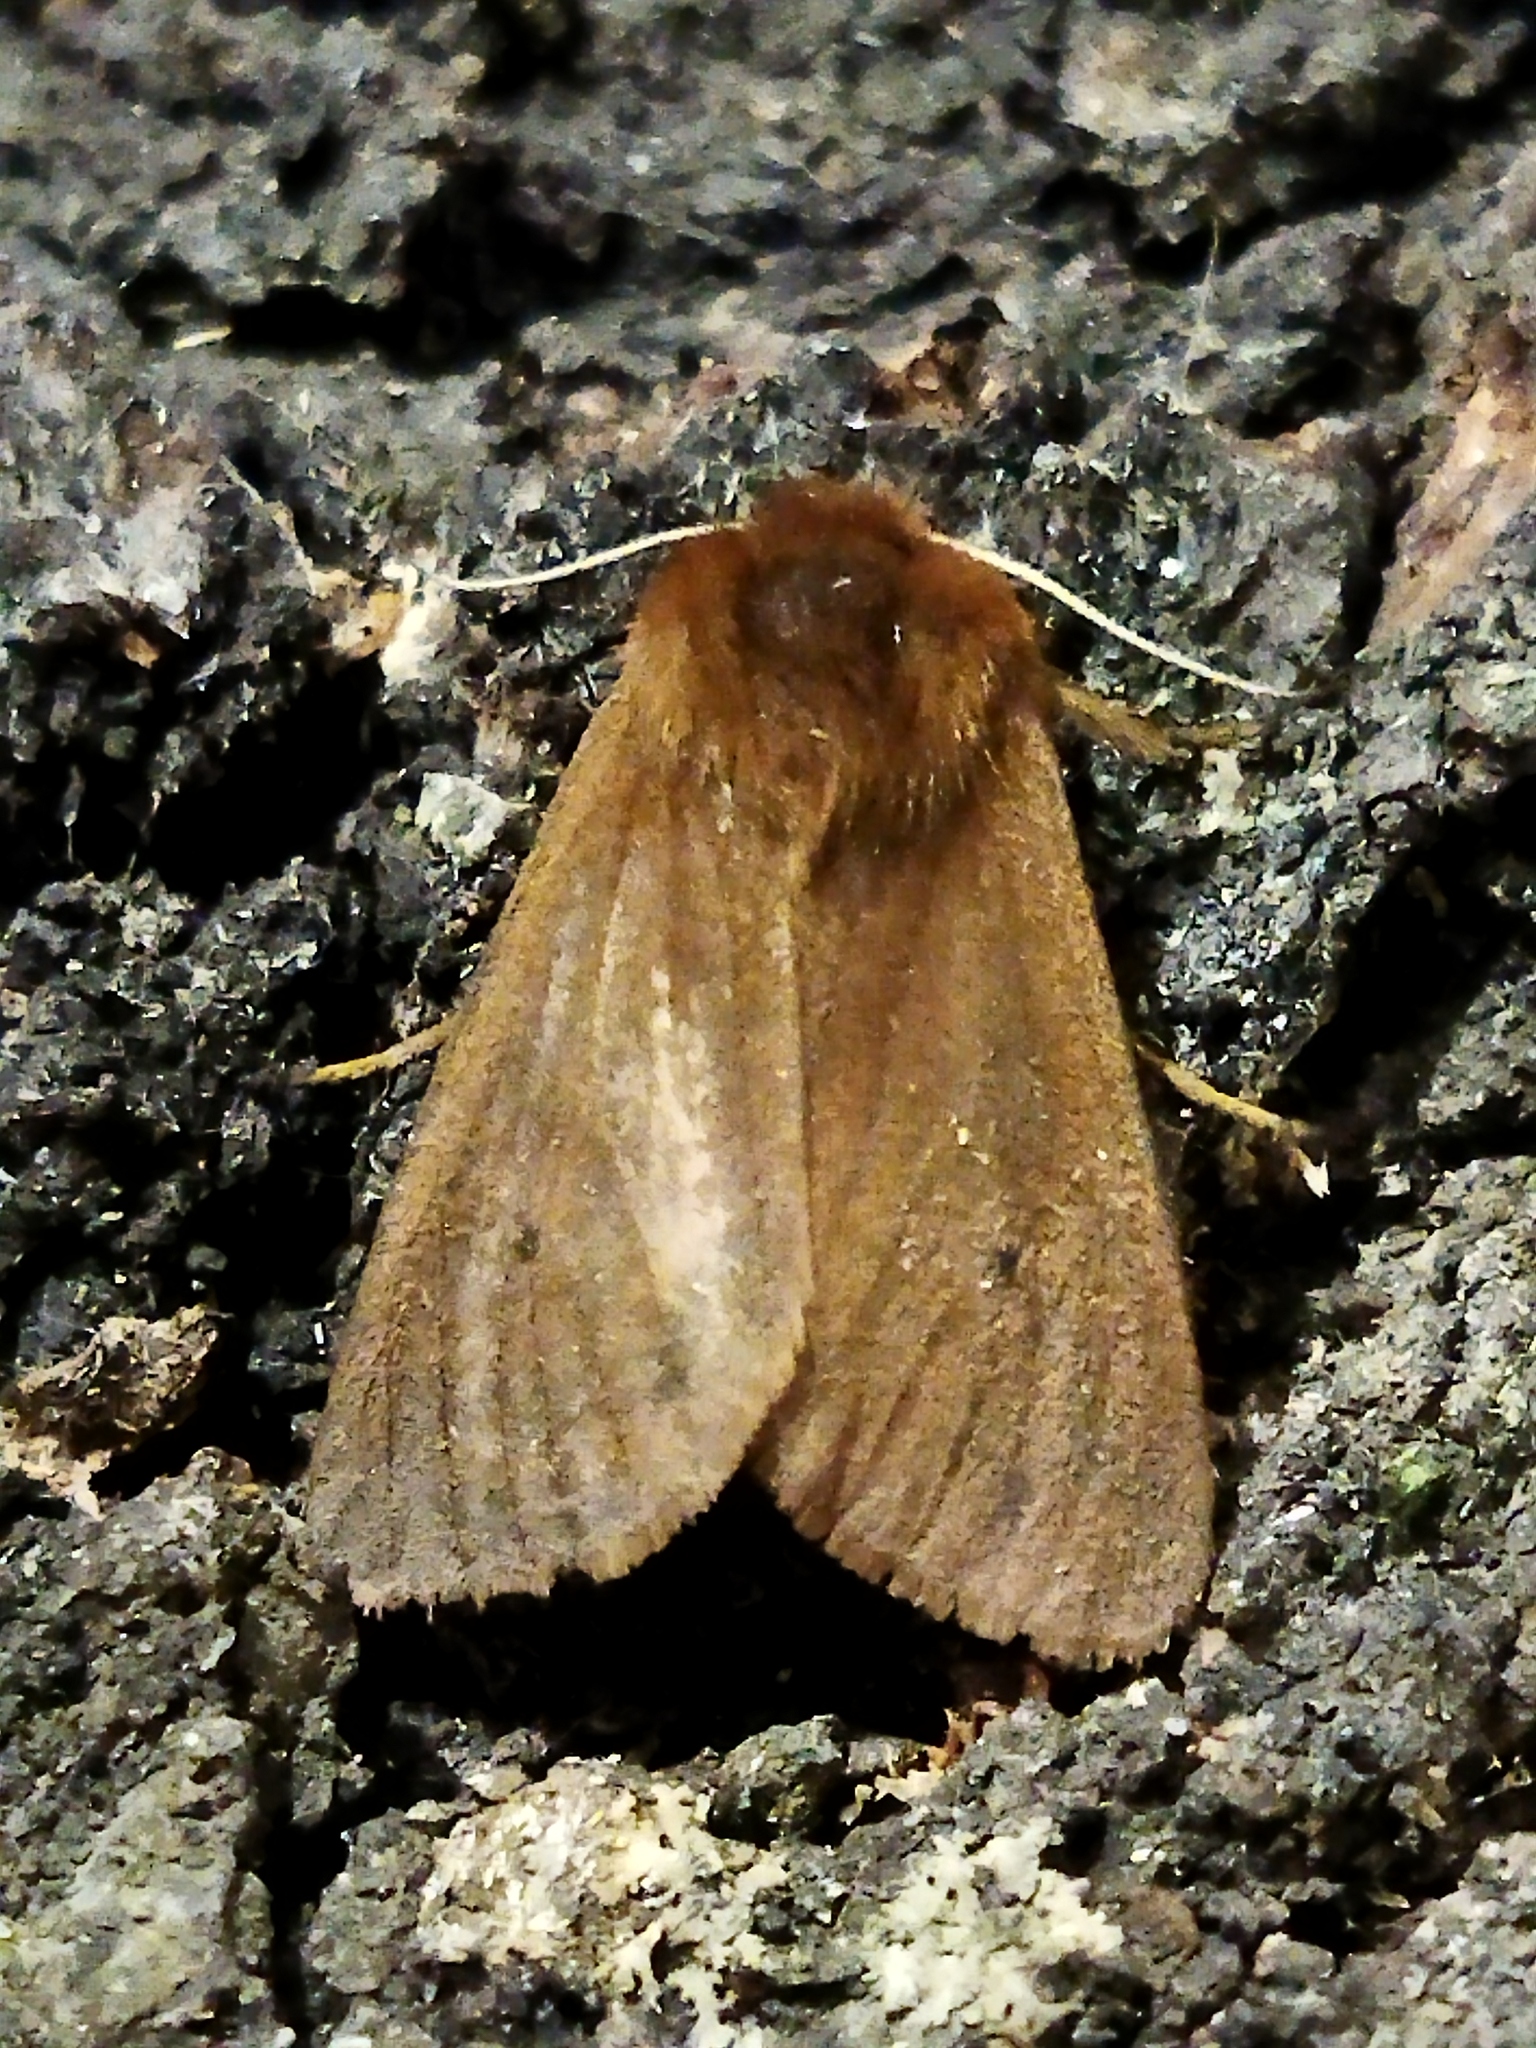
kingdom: Animalia
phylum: Arthropoda
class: Insecta
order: Lepidoptera
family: Erebidae
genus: Phragmatobia
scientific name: Phragmatobia fuliginosa
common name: Ruby tiger
